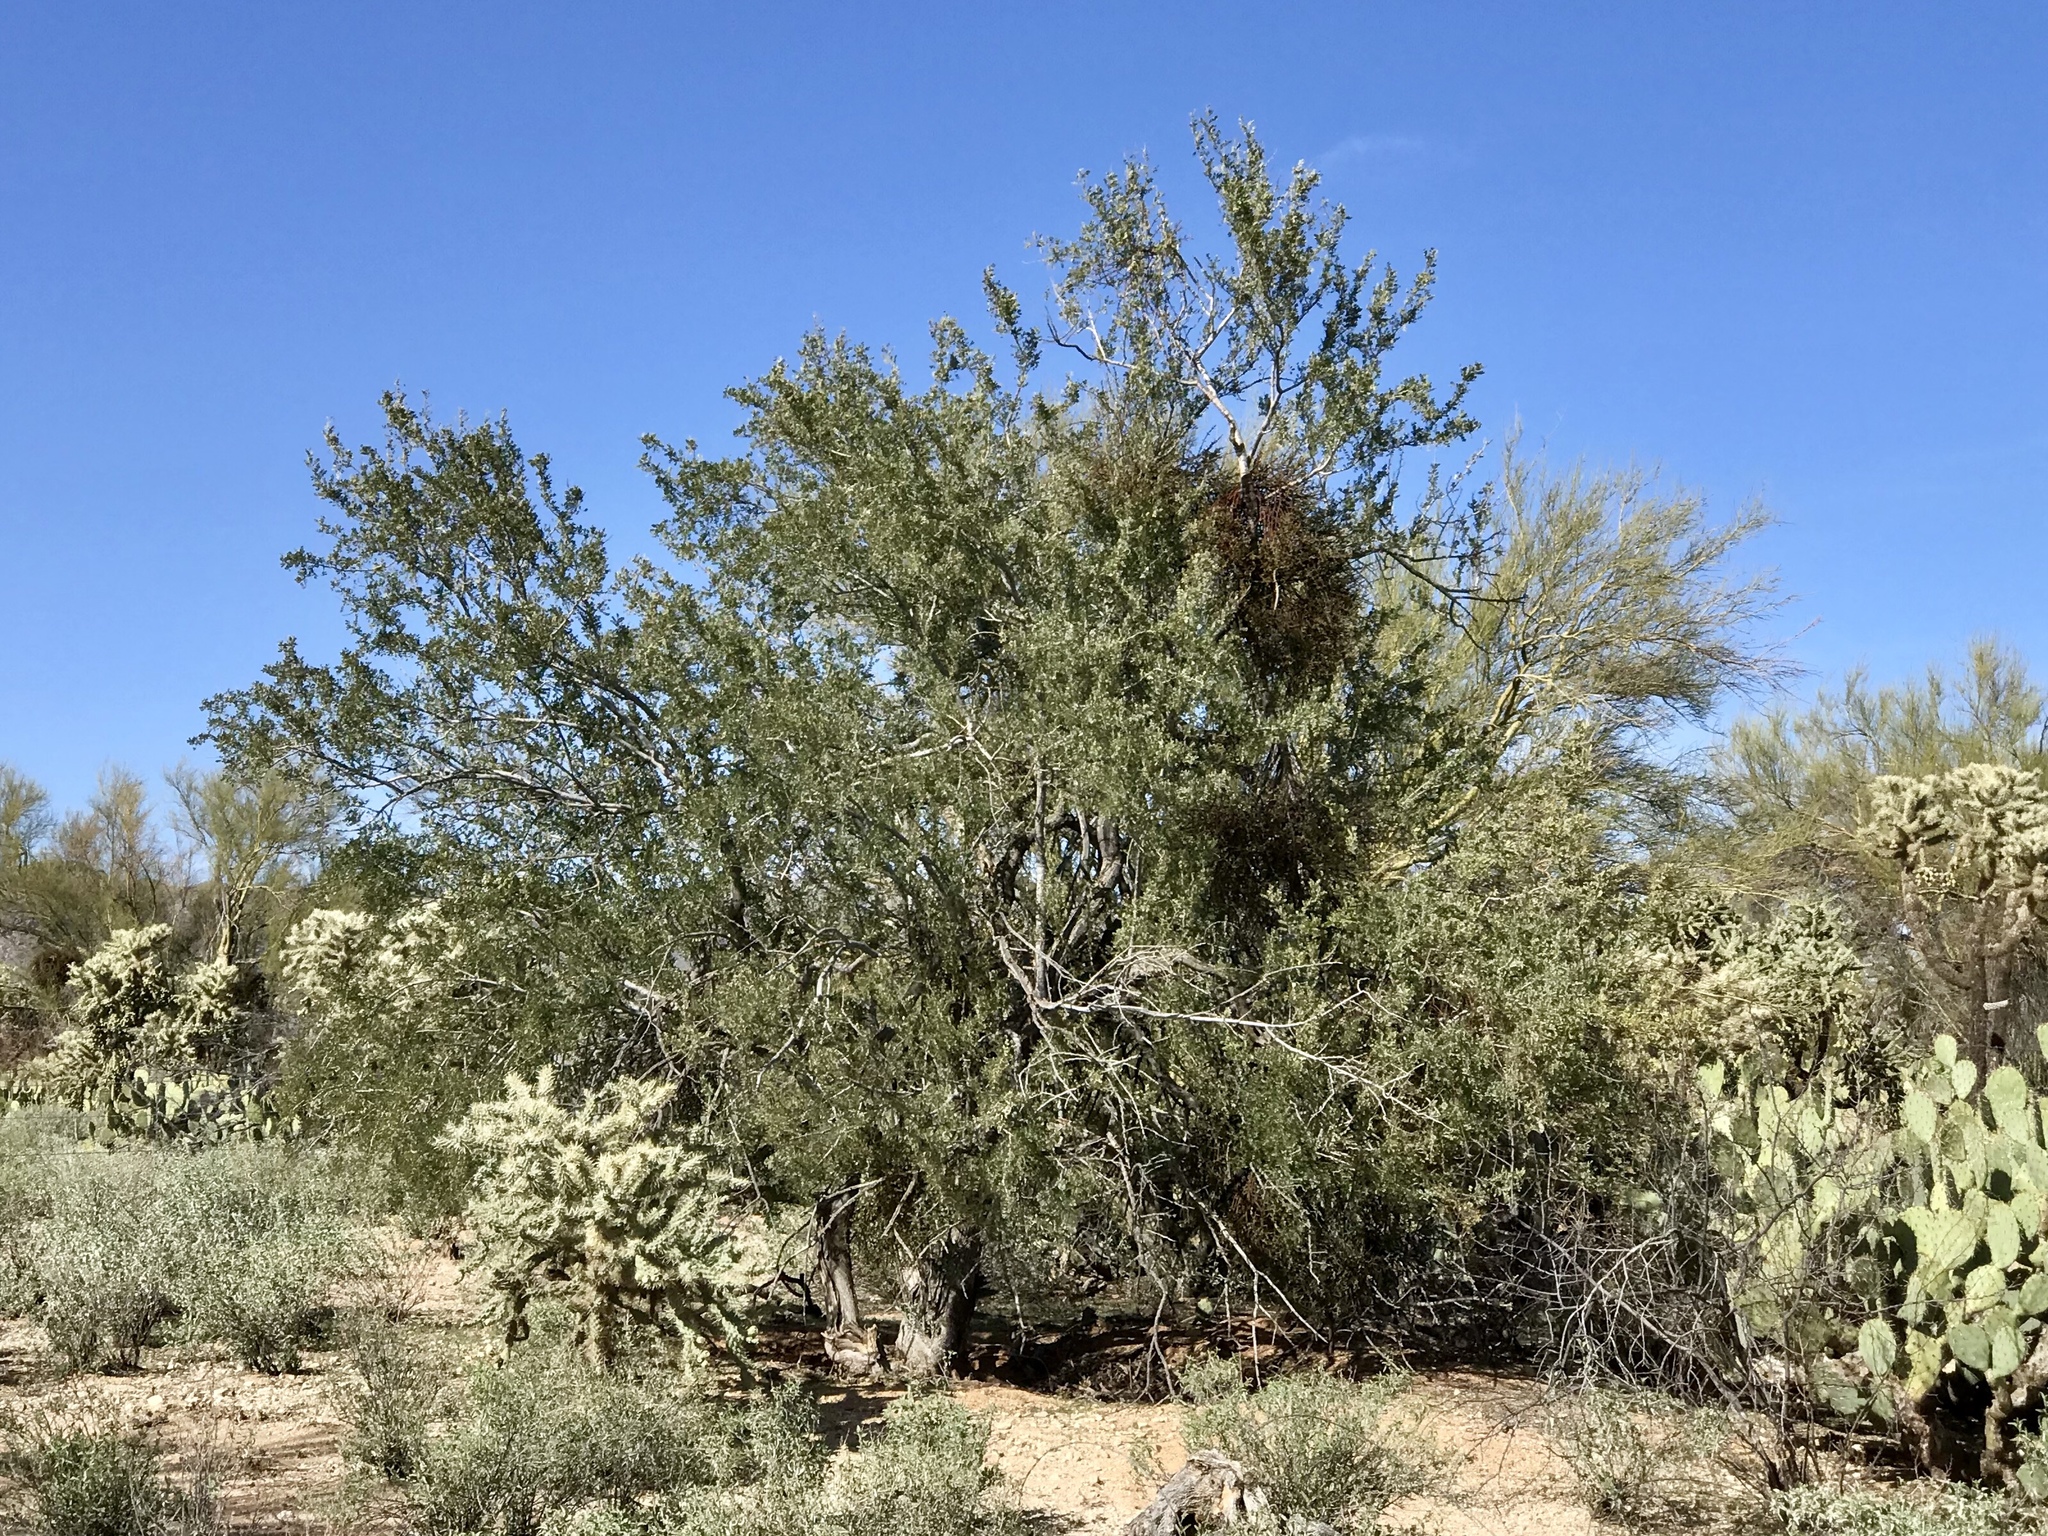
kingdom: Plantae
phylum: Tracheophyta
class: Magnoliopsida
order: Fabales
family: Fabaceae
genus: Olneya
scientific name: Olneya tesota
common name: Desert ironwood
